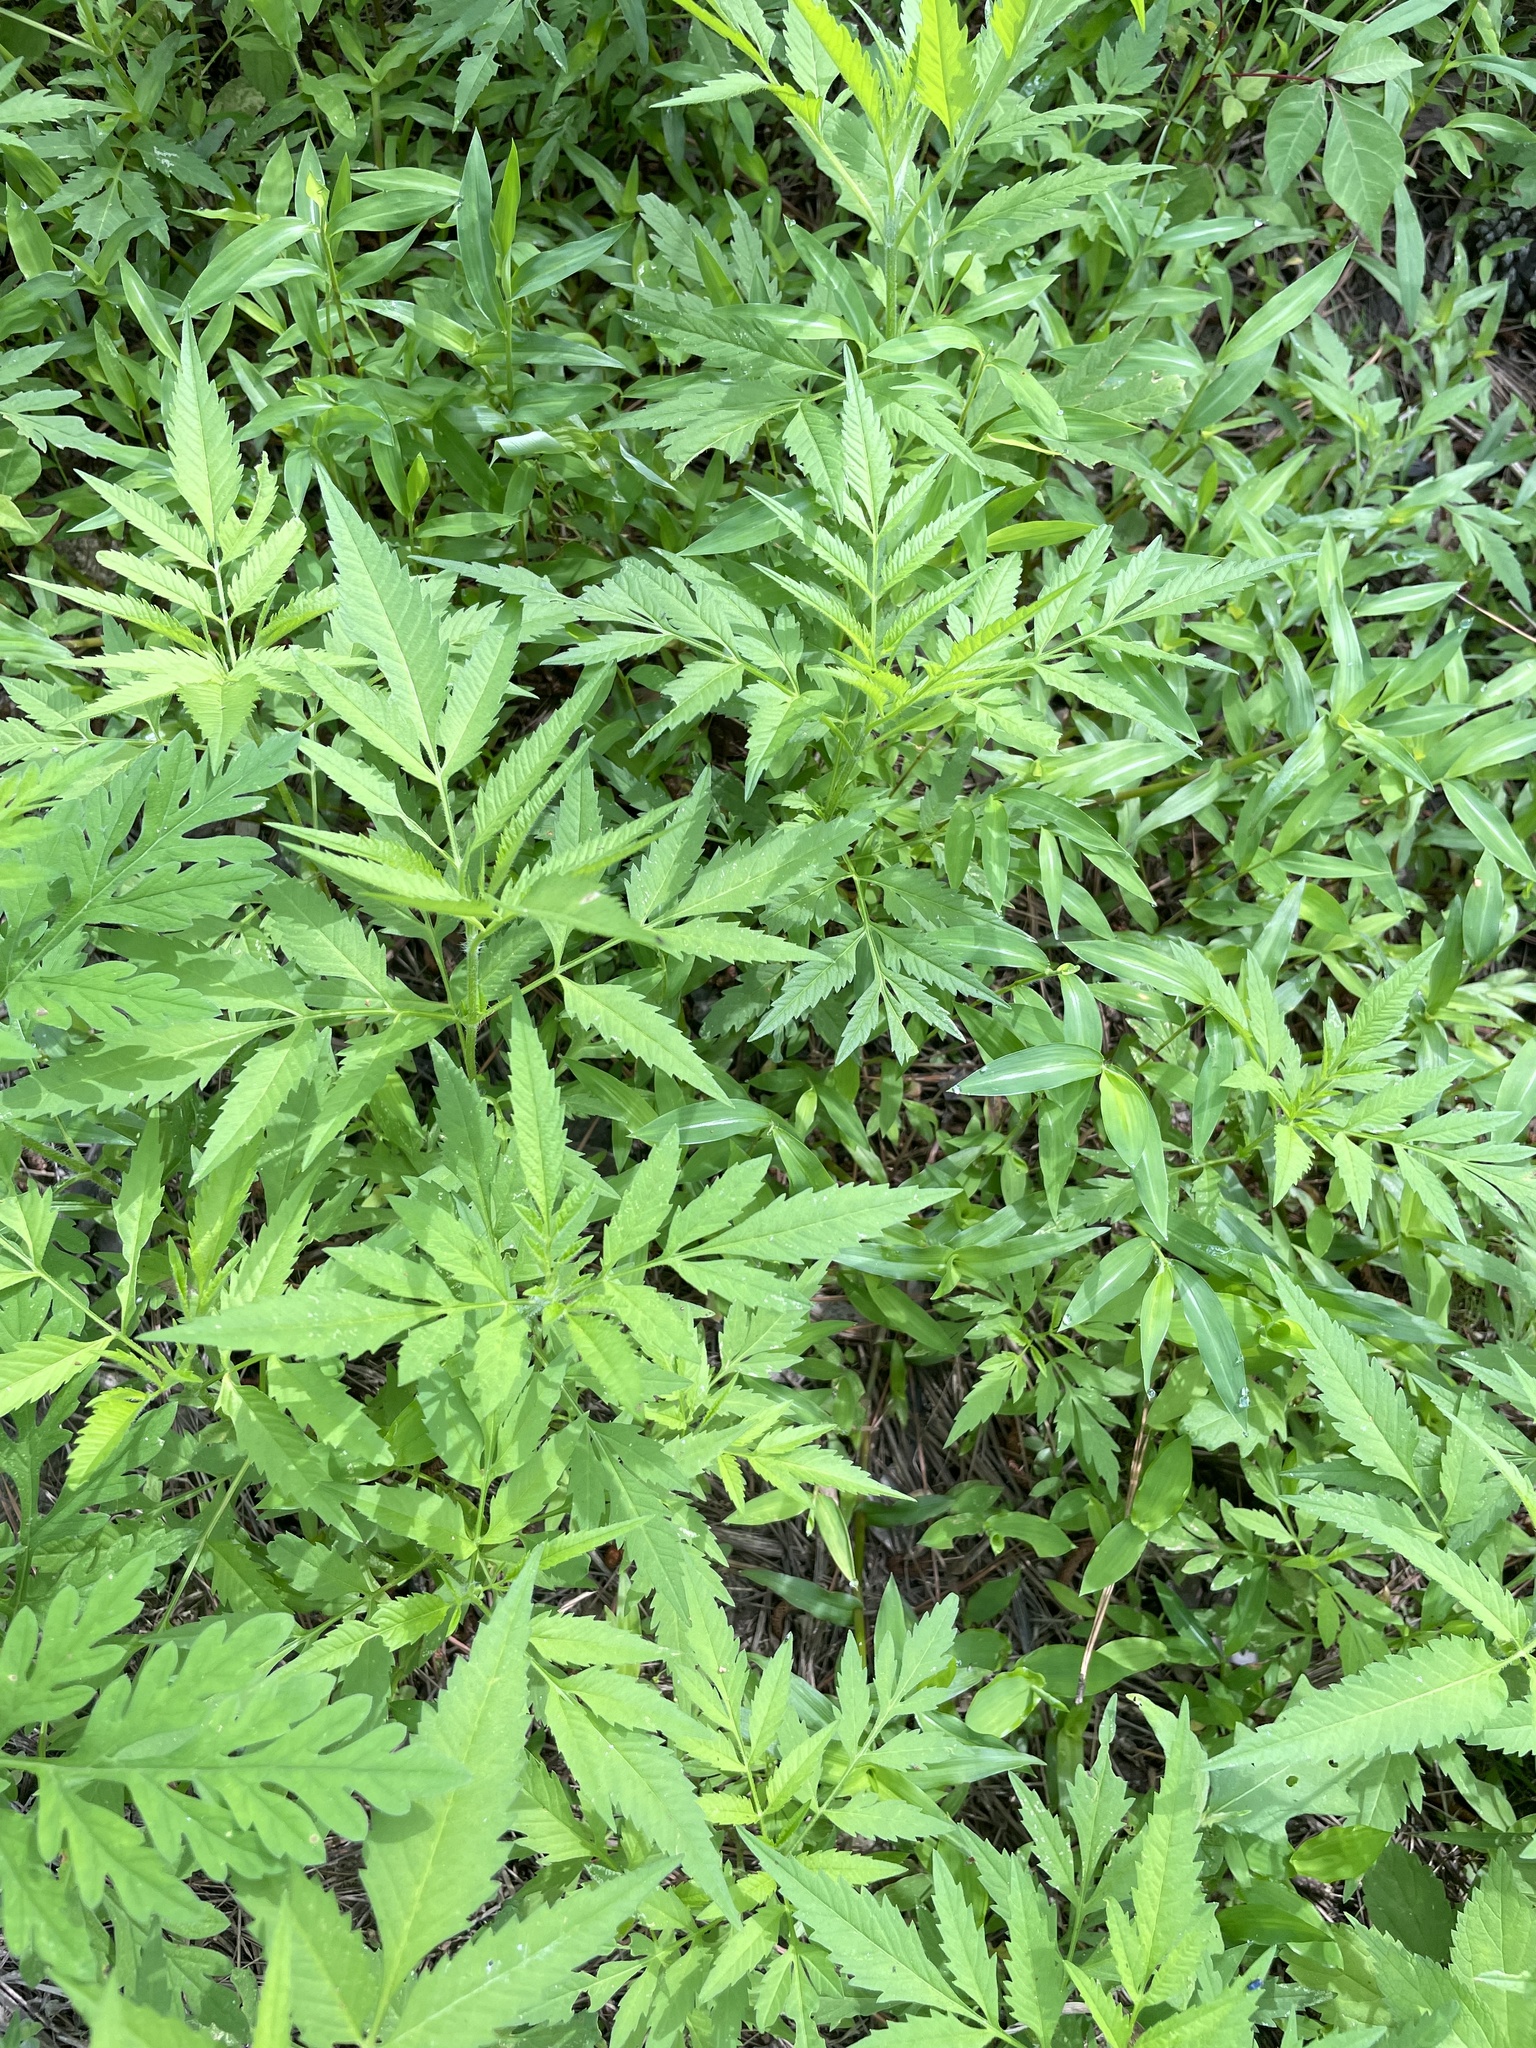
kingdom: Plantae
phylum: Tracheophyta
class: Magnoliopsida
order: Asterales
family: Asteraceae
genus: Bidens
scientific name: Bidens aristosa
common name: Western tickseed
